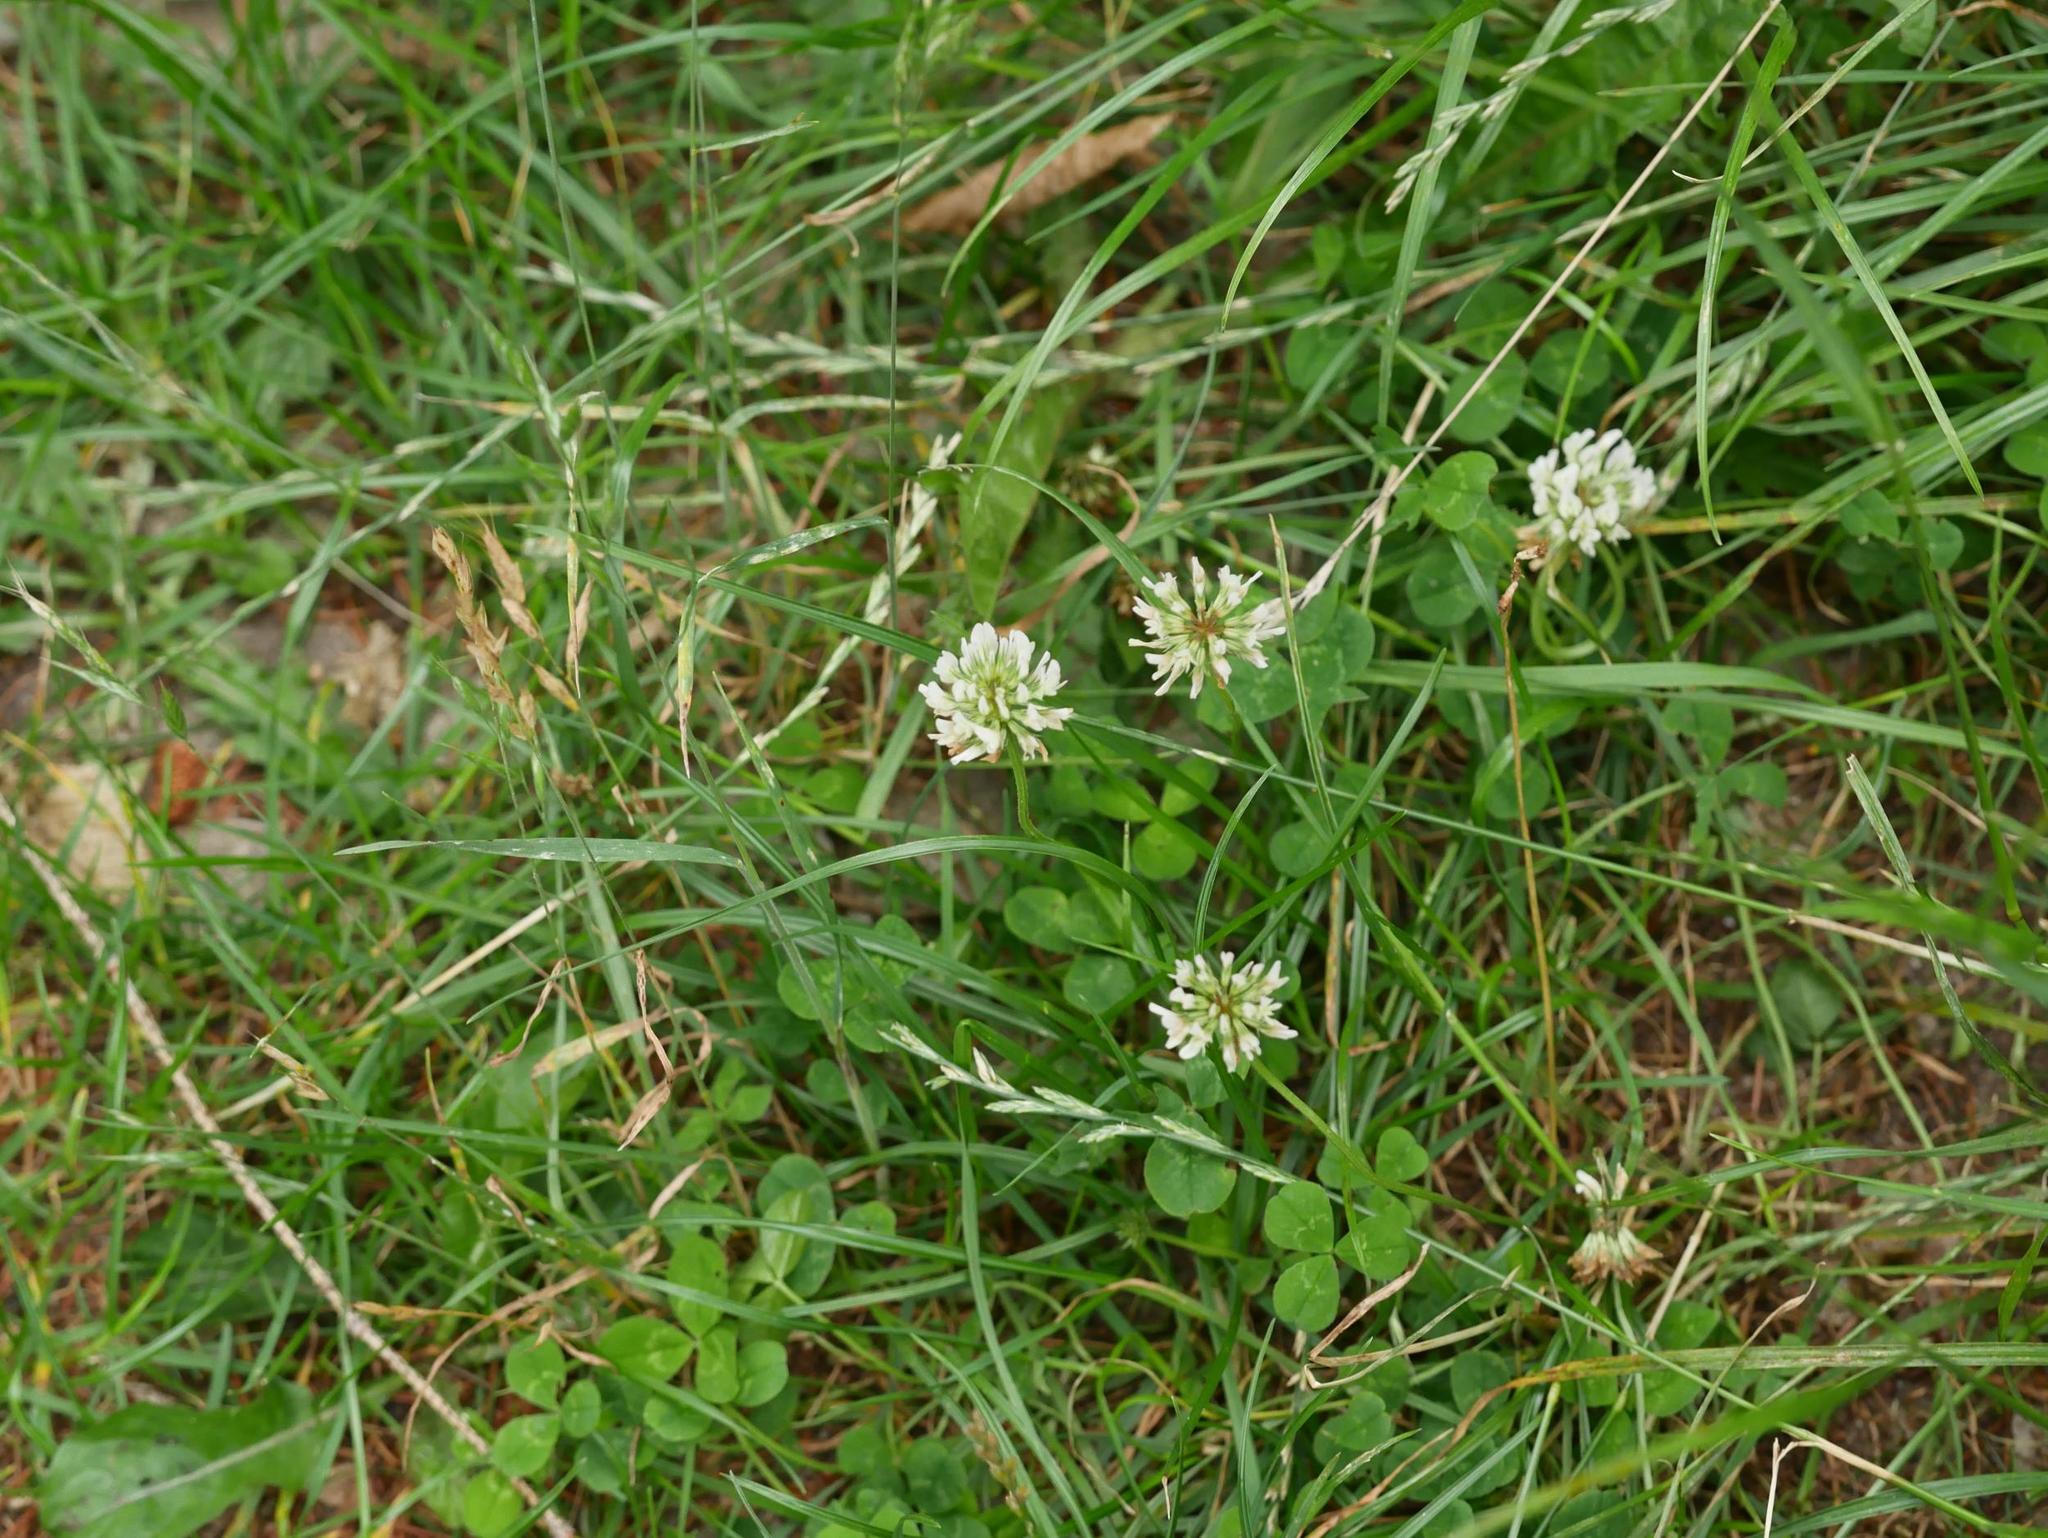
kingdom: Plantae
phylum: Tracheophyta
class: Magnoliopsida
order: Fabales
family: Fabaceae
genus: Trifolium
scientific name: Trifolium repens
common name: White clover
